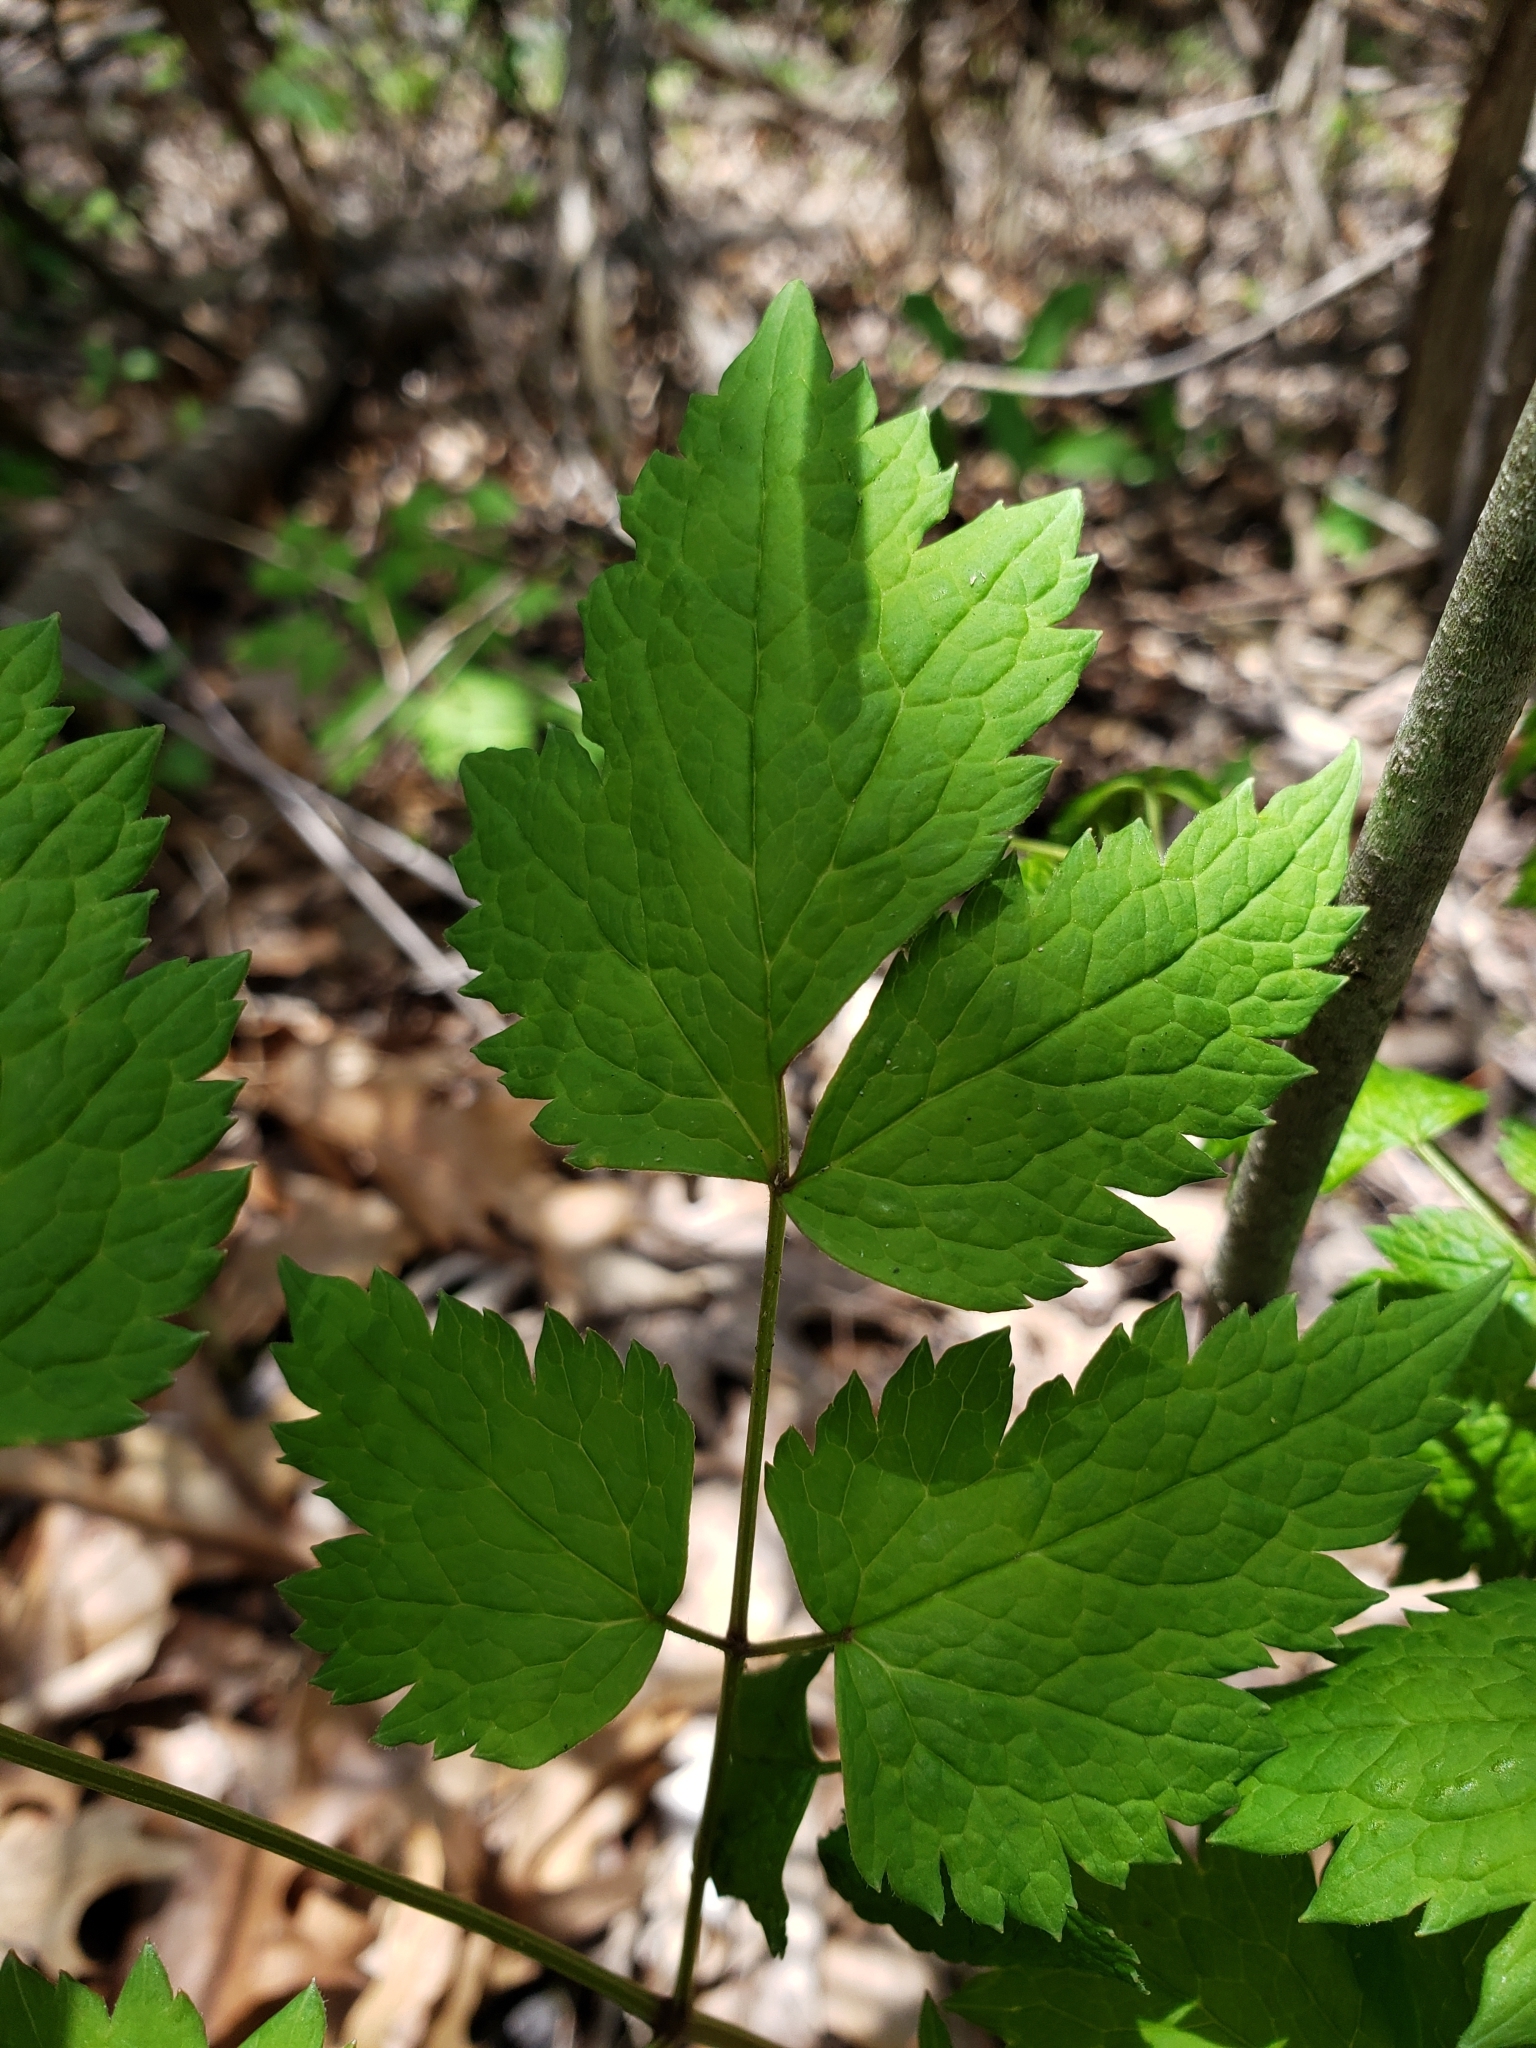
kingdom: Plantae
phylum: Tracheophyta
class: Magnoliopsida
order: Ranunculales
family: Ranunculaceae
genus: Actaea
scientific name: Actaea rubra
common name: Red baneberry
